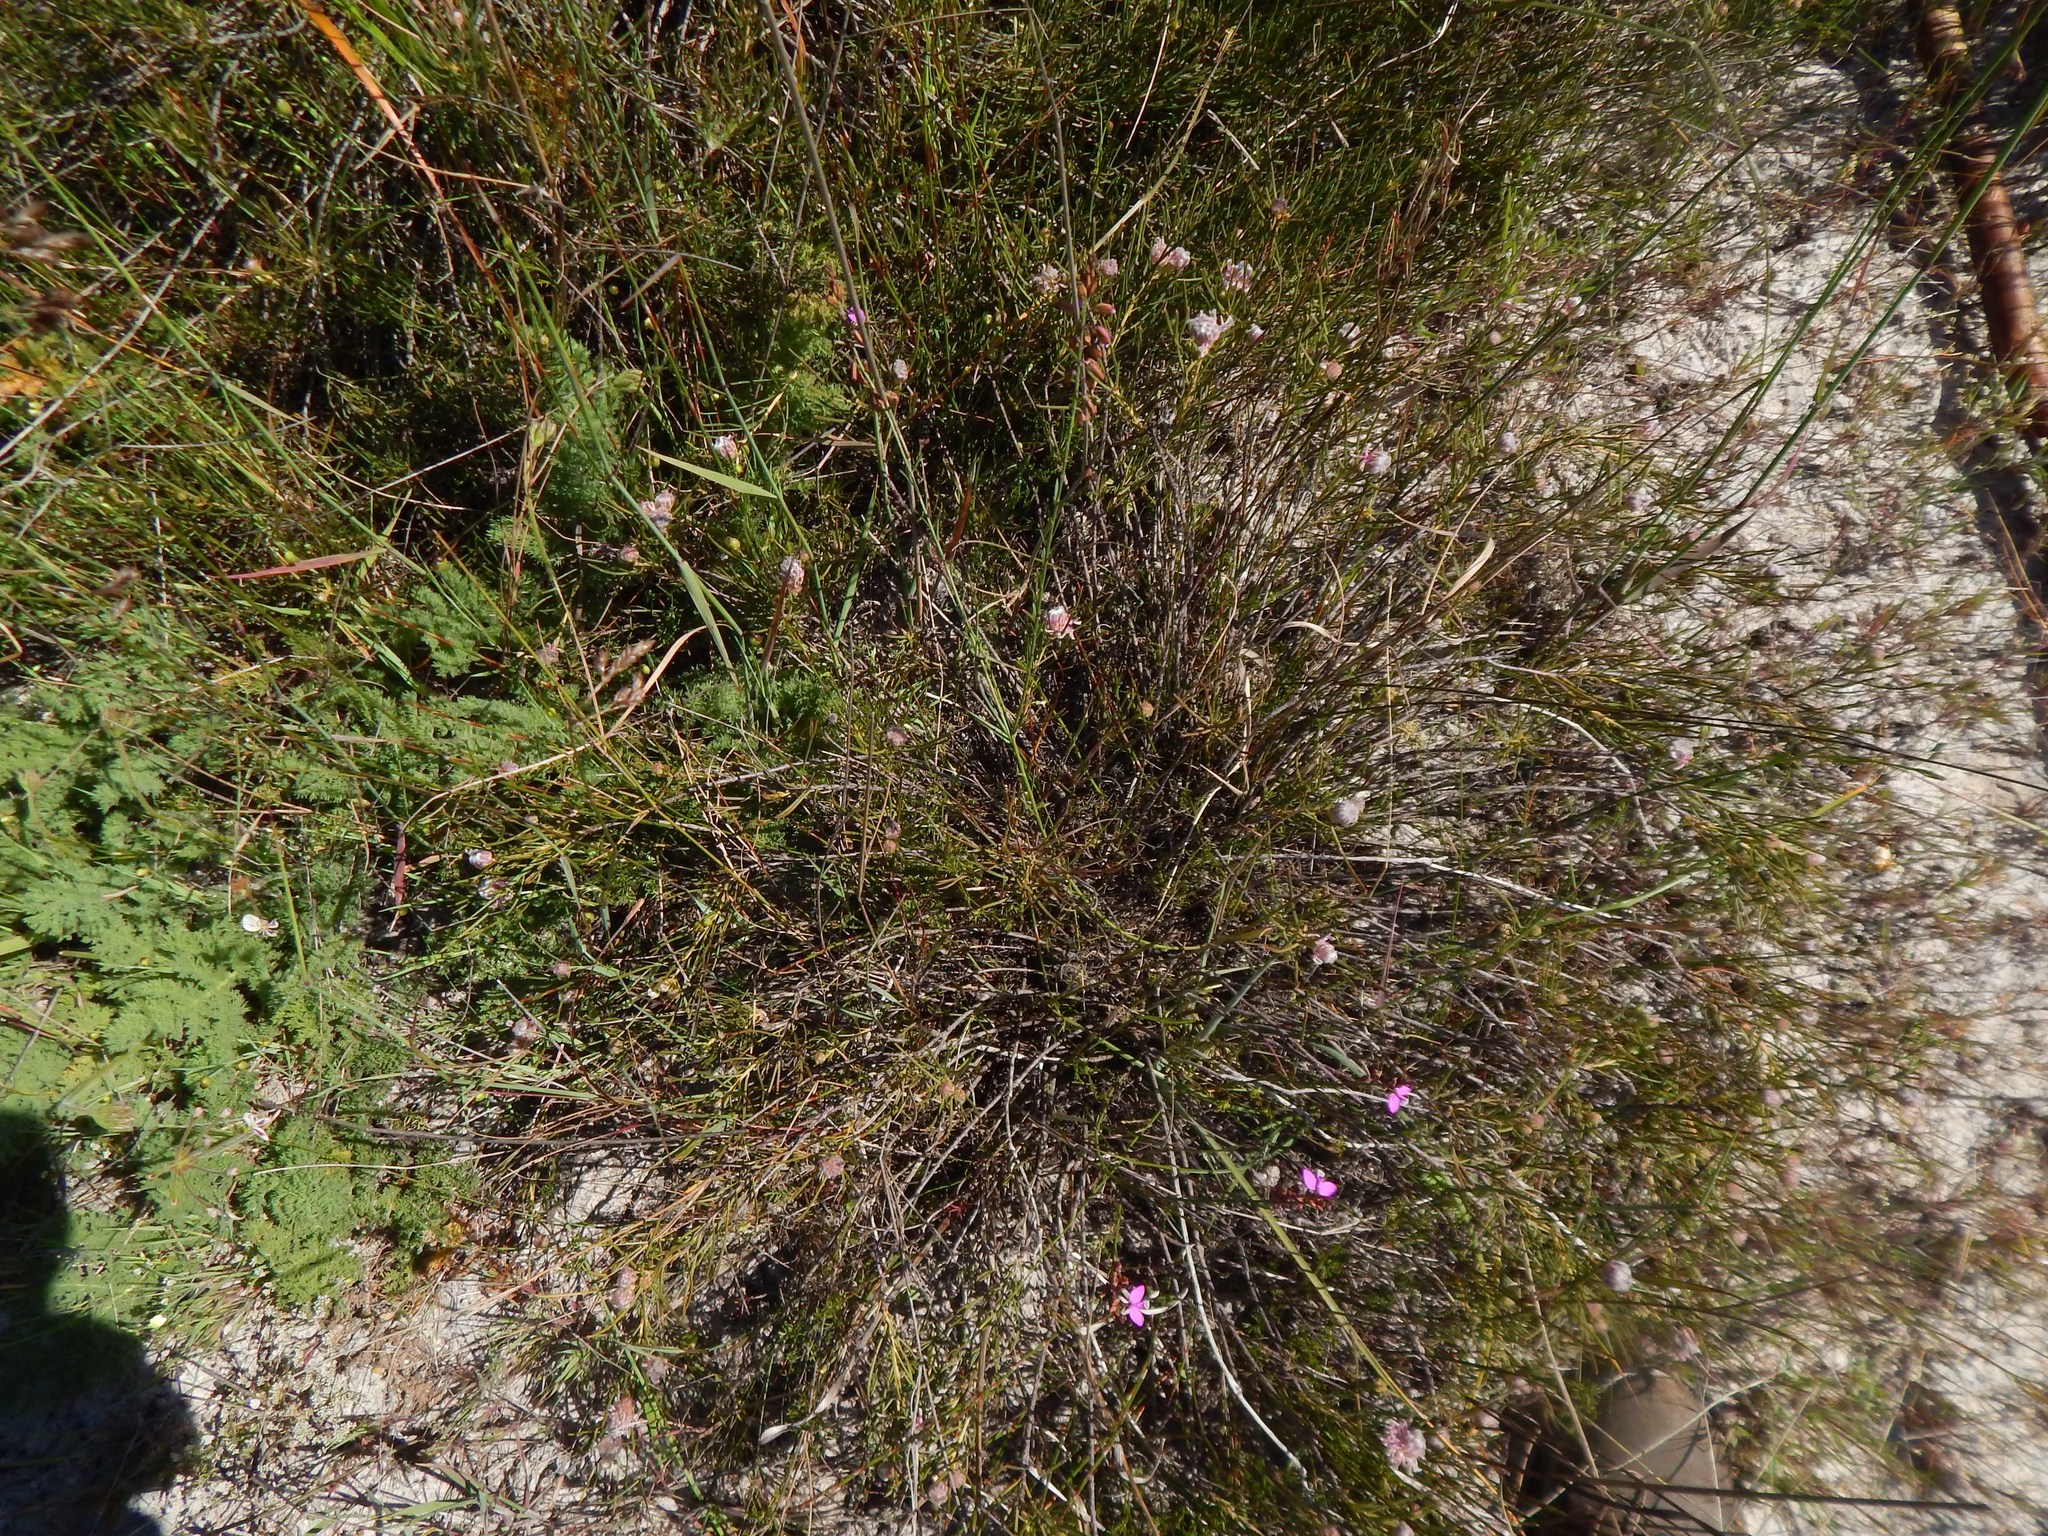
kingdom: Plantae
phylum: Tracheophyta
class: Magnoliopsida
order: Proteales
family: Proteaceae
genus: Serruria
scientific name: Serruria linearis
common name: Needle-leaf spiderhead
